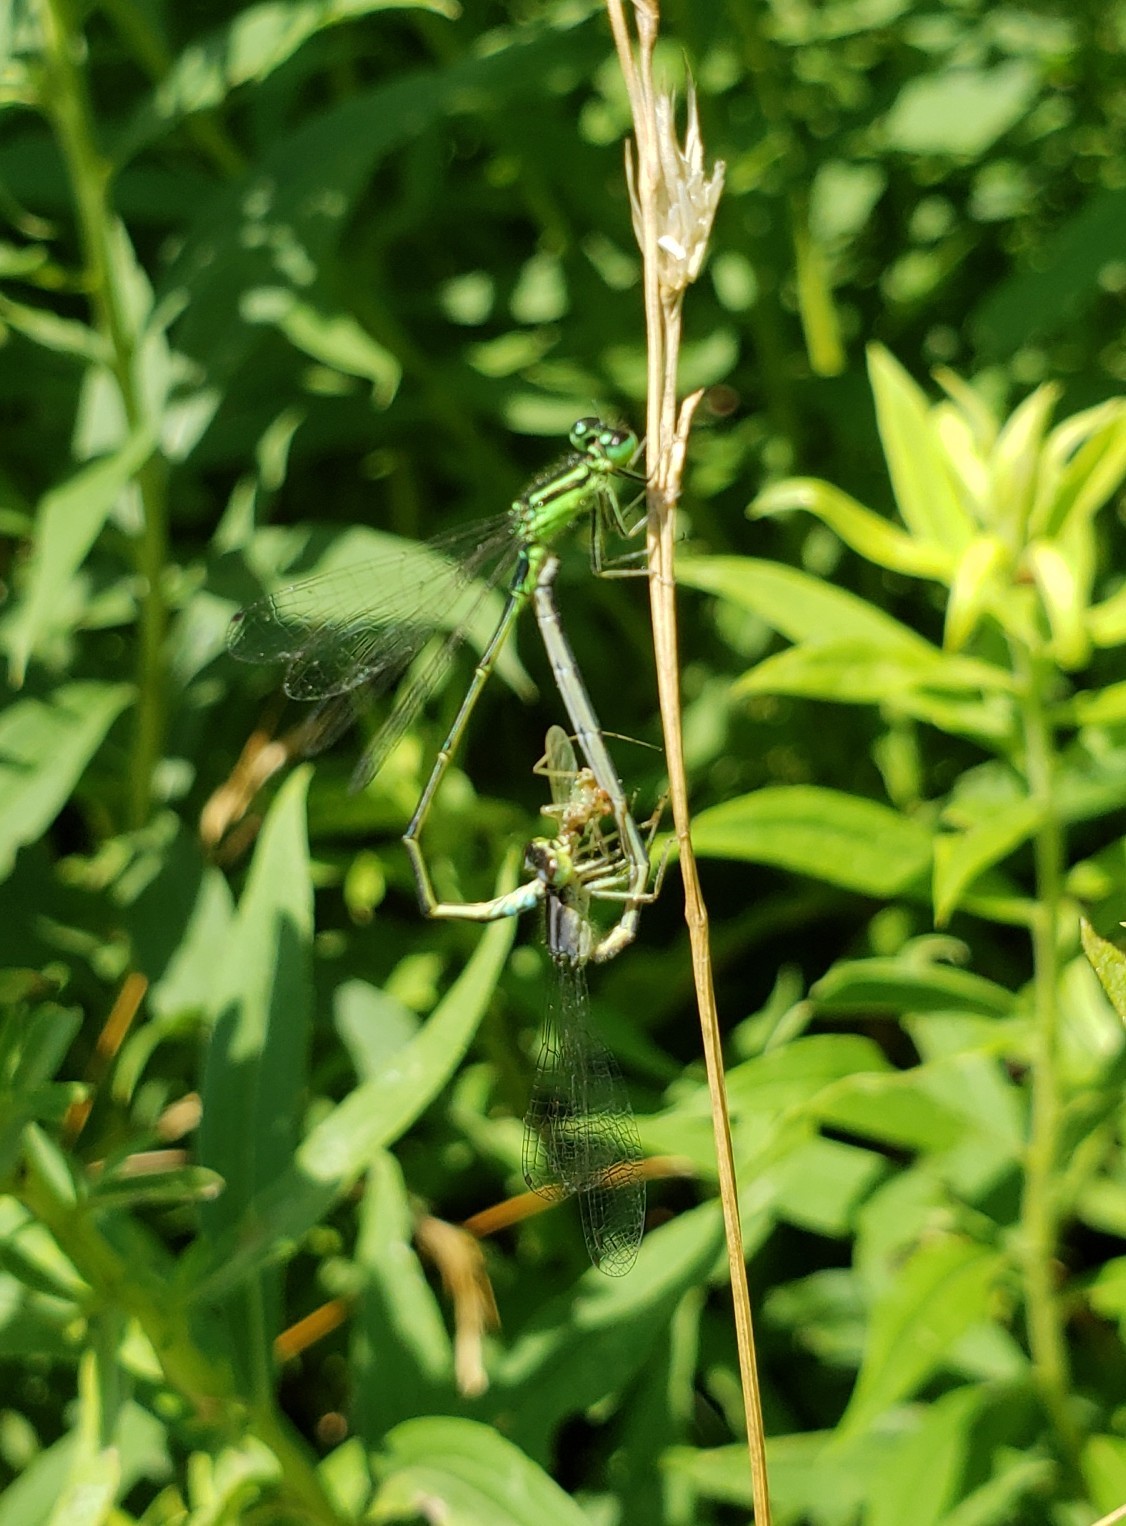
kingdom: Animalia
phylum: Arthropoda
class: Insecta
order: Odonata
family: Coenagrionidae
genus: Ischnura
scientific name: Ischnura verticalis
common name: Eastern forktail
